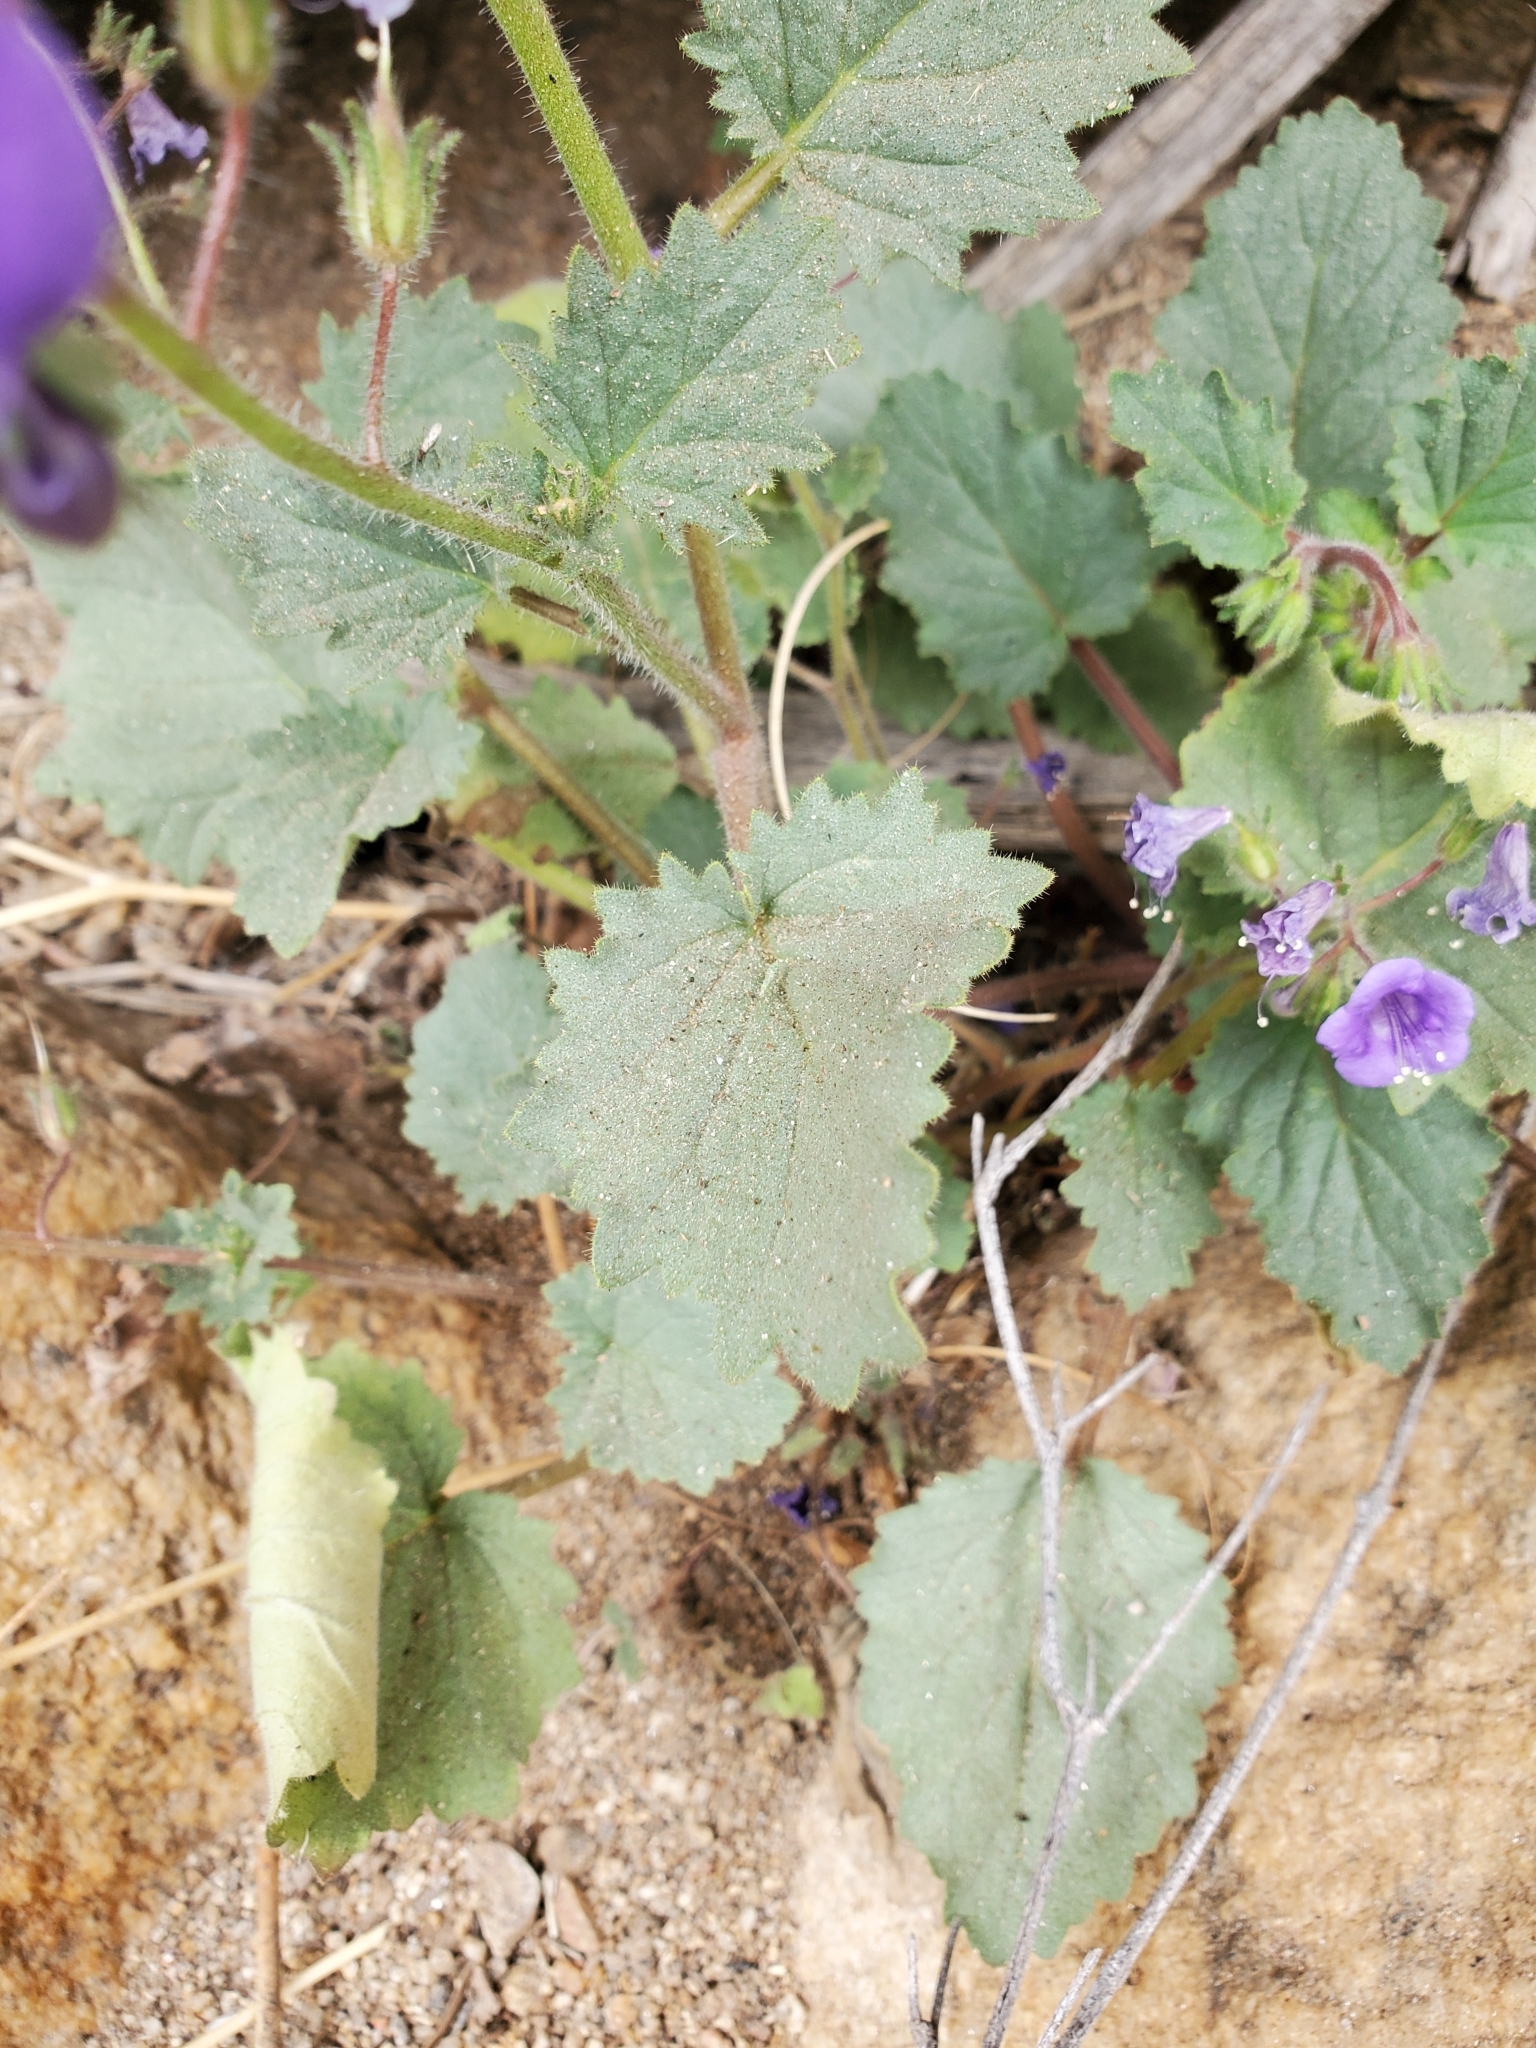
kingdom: Plantae
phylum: Tracheophyta
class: Magnoliopsida
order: Boraginales
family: Hydrophyllaceae
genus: Phacelia
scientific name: Phacelia minor
